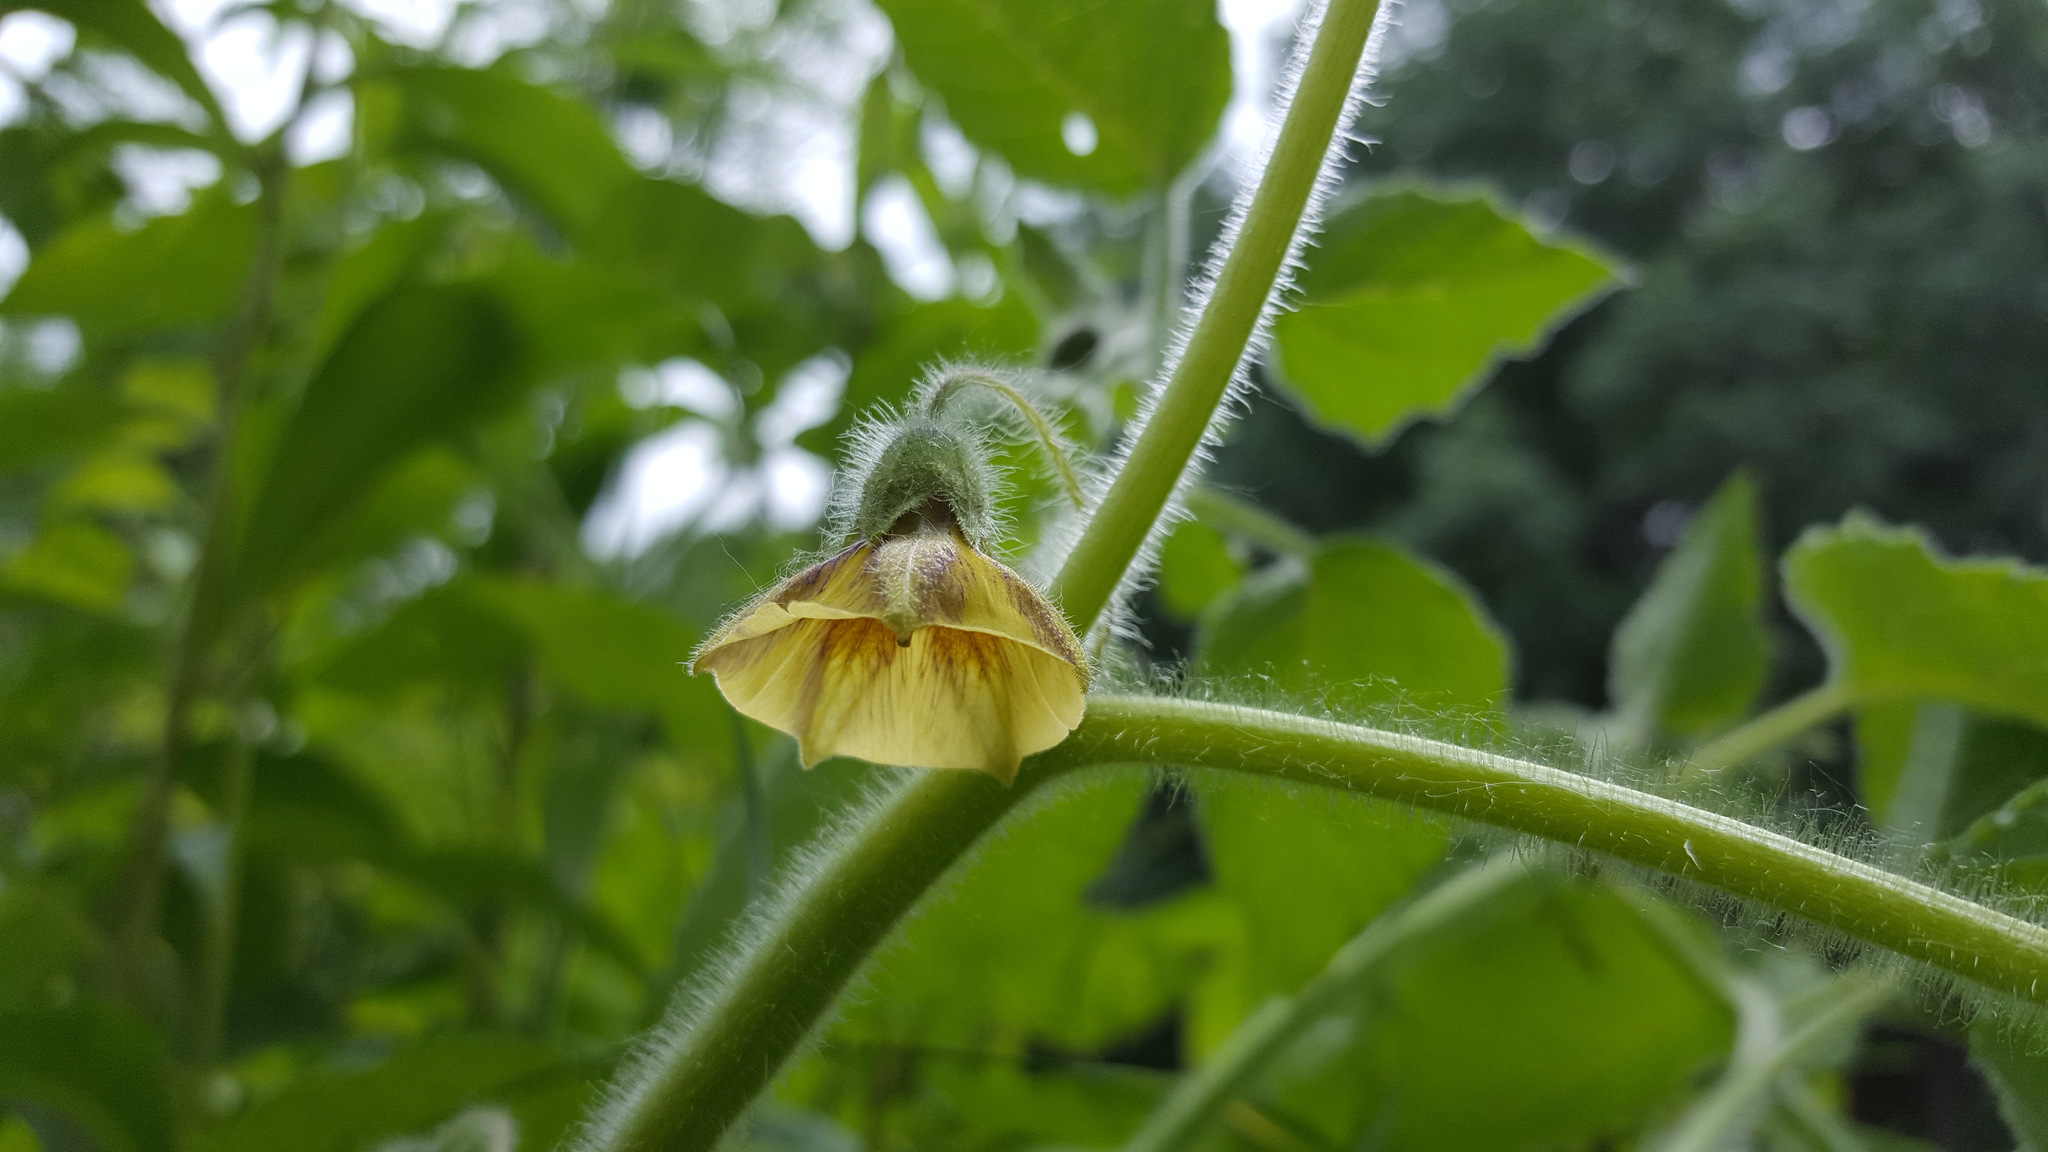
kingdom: Plantae
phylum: Tracheophyta
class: Magnoliopsida
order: Solanales
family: Solanaceae
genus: Physalis
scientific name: Physalis heterophylla
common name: Clammy ground-cherry
